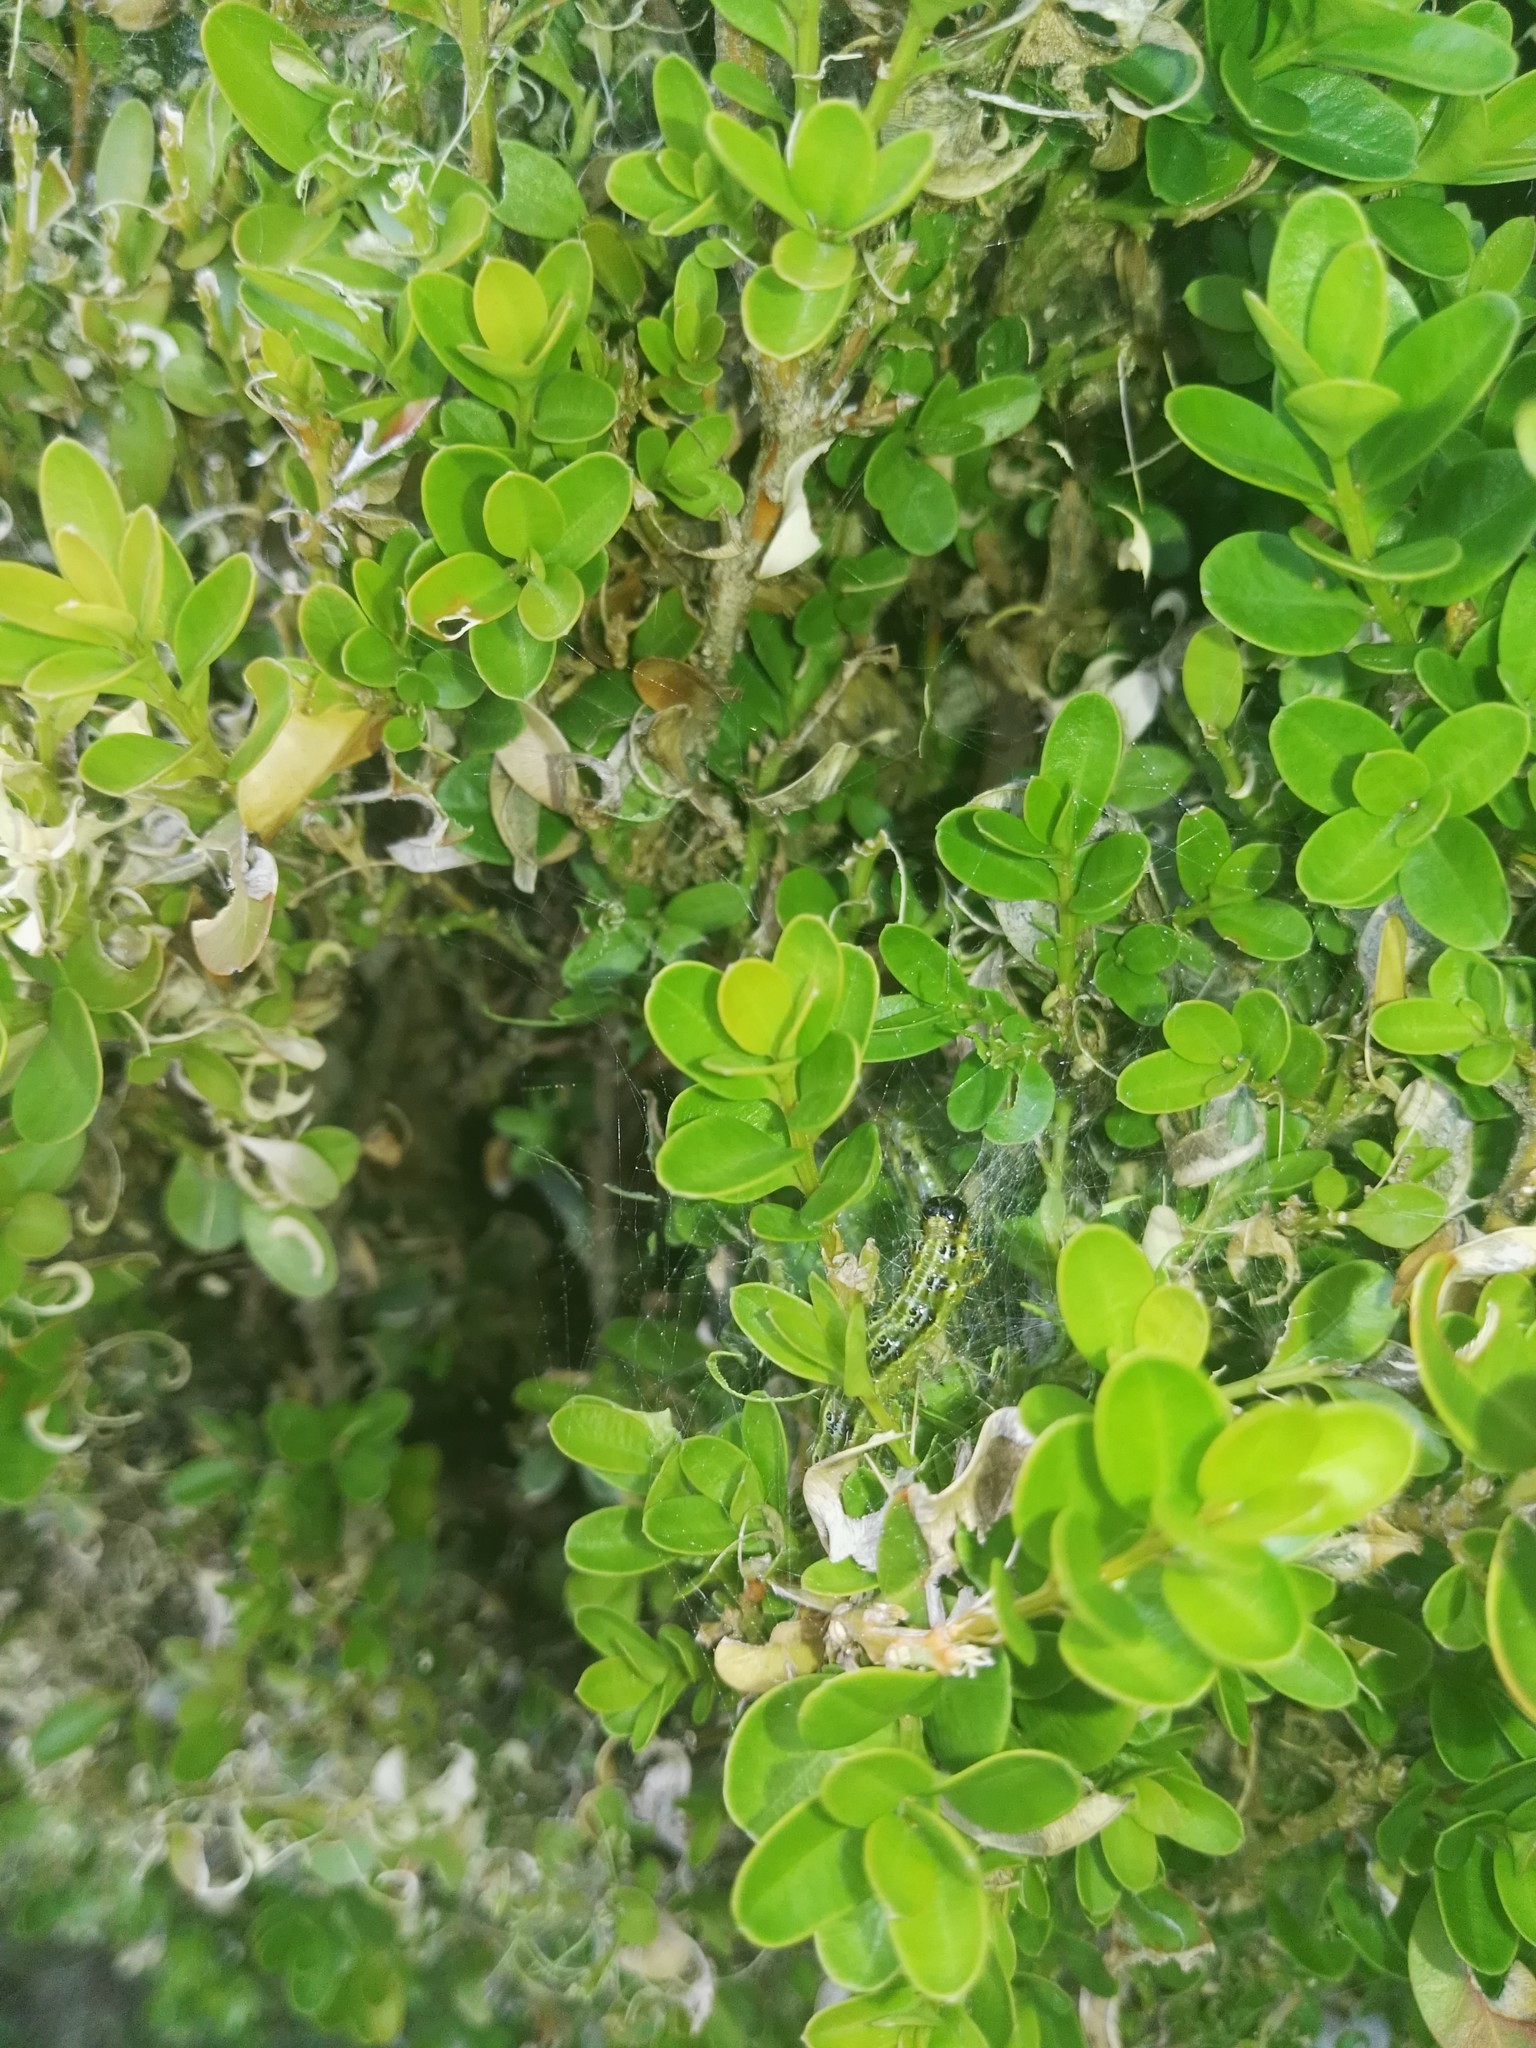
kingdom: Animalia
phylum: Arthropoda
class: Insecta
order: Lepidoptera
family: Crambidae
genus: Cydalima
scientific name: Cydalima perspectalis
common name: Box tree moth
